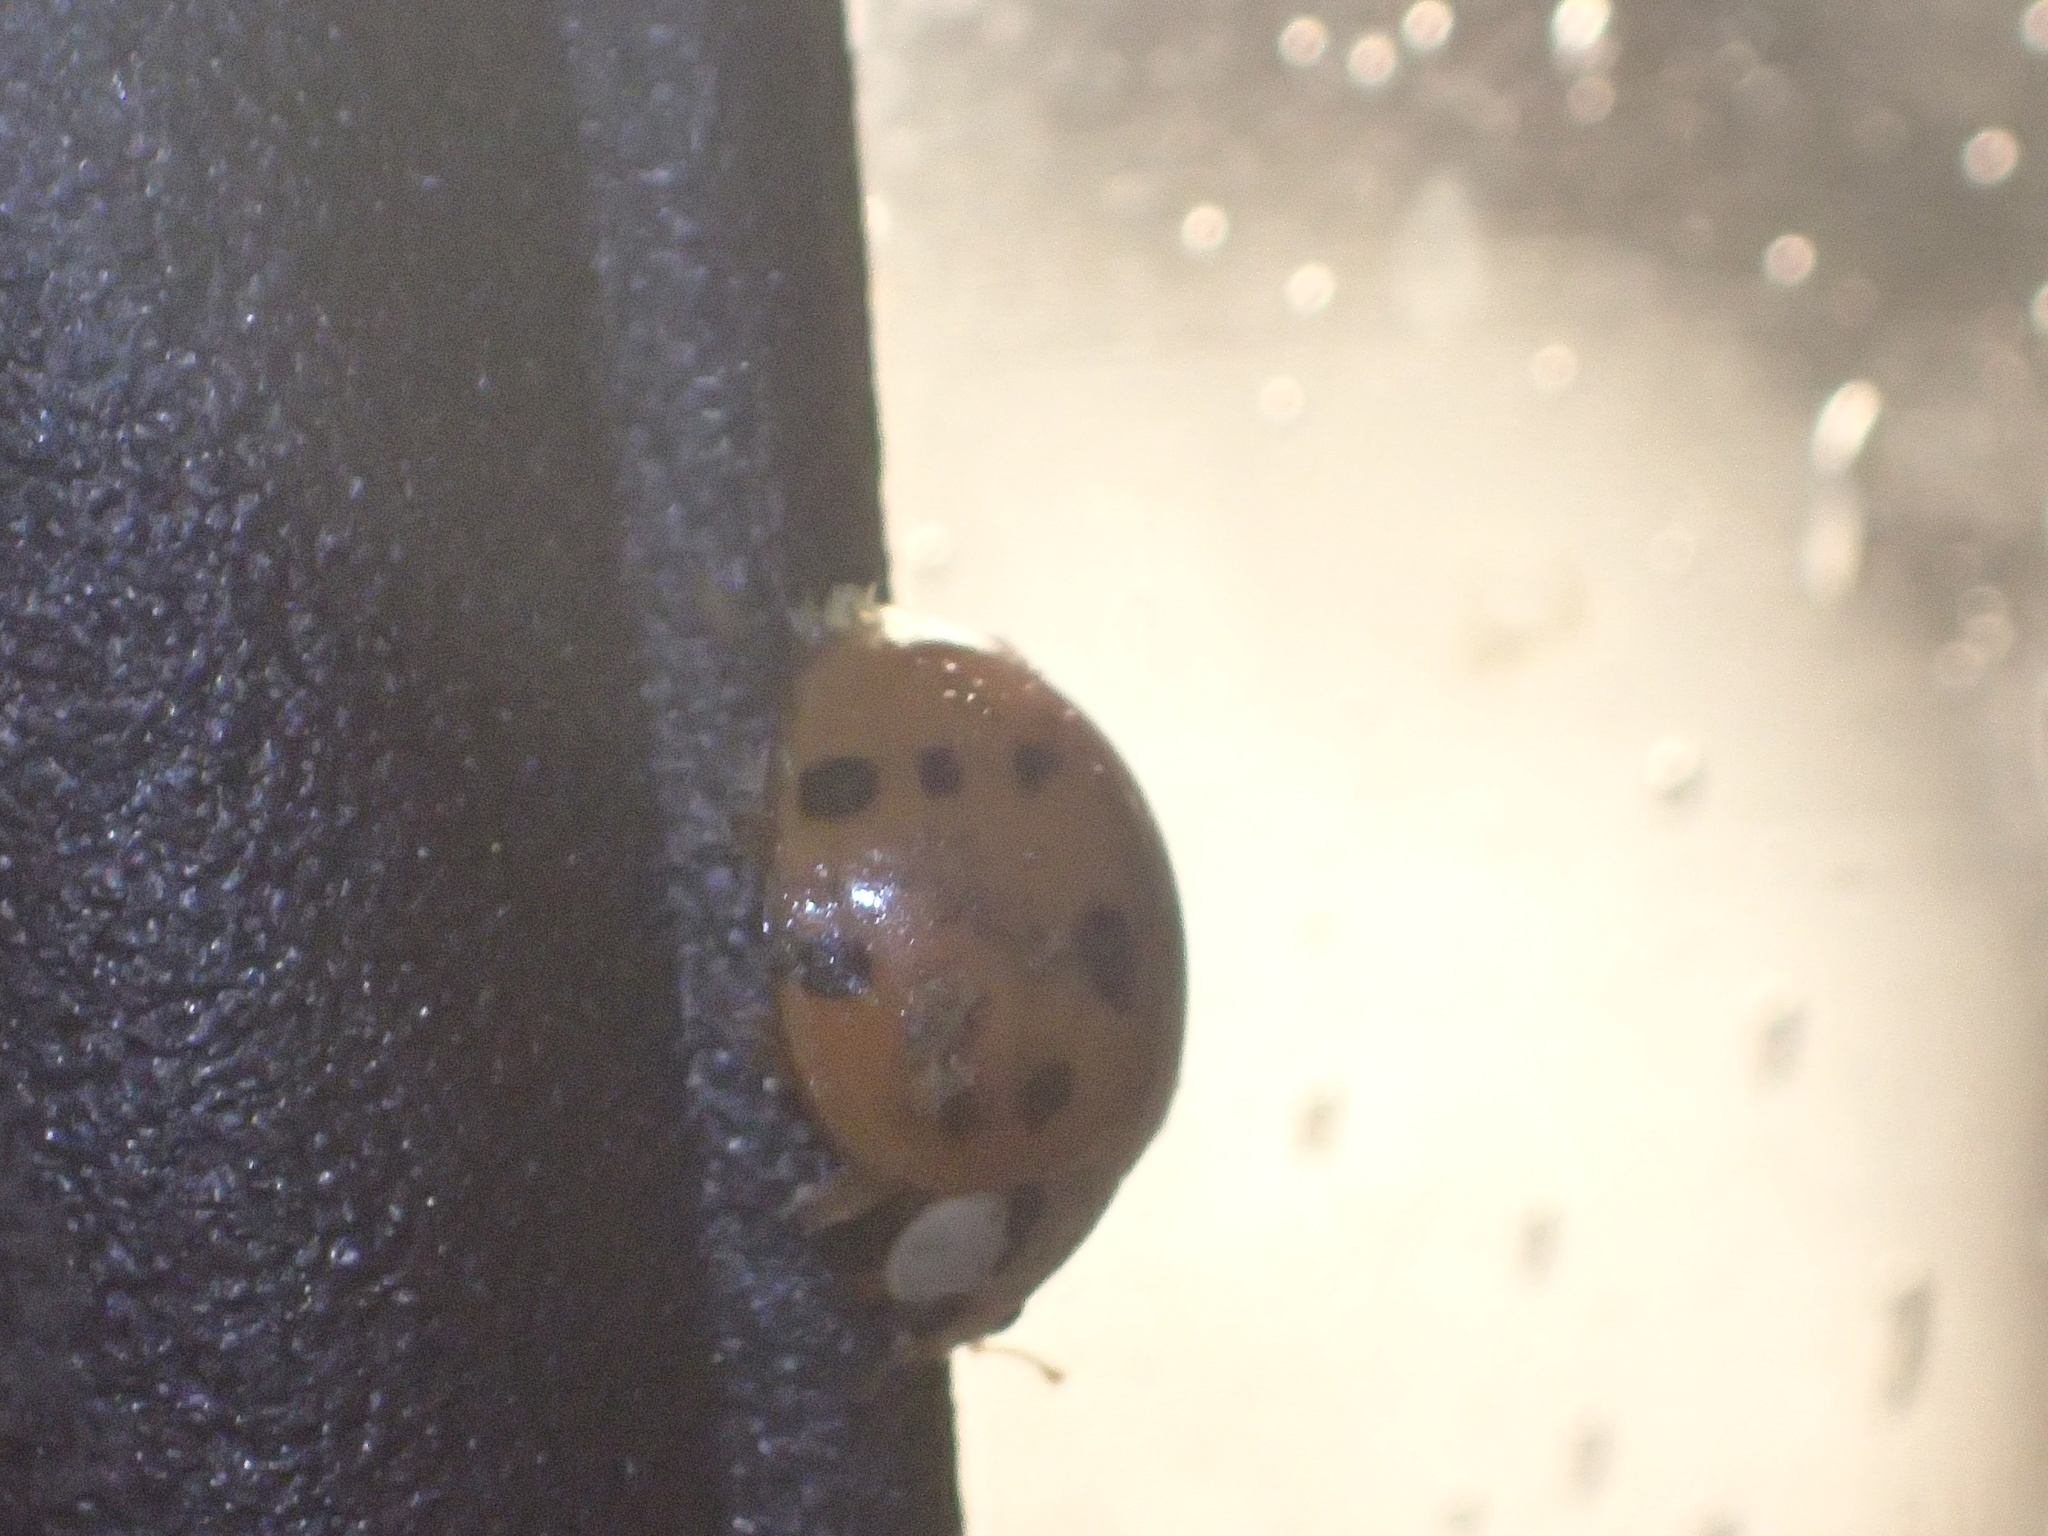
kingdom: Animalia
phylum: Arthropoda
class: Insecta
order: Coleoptera
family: Coccinellidae
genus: Harmonia
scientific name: Harmonia axyridis
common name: Harlequin ladybird
